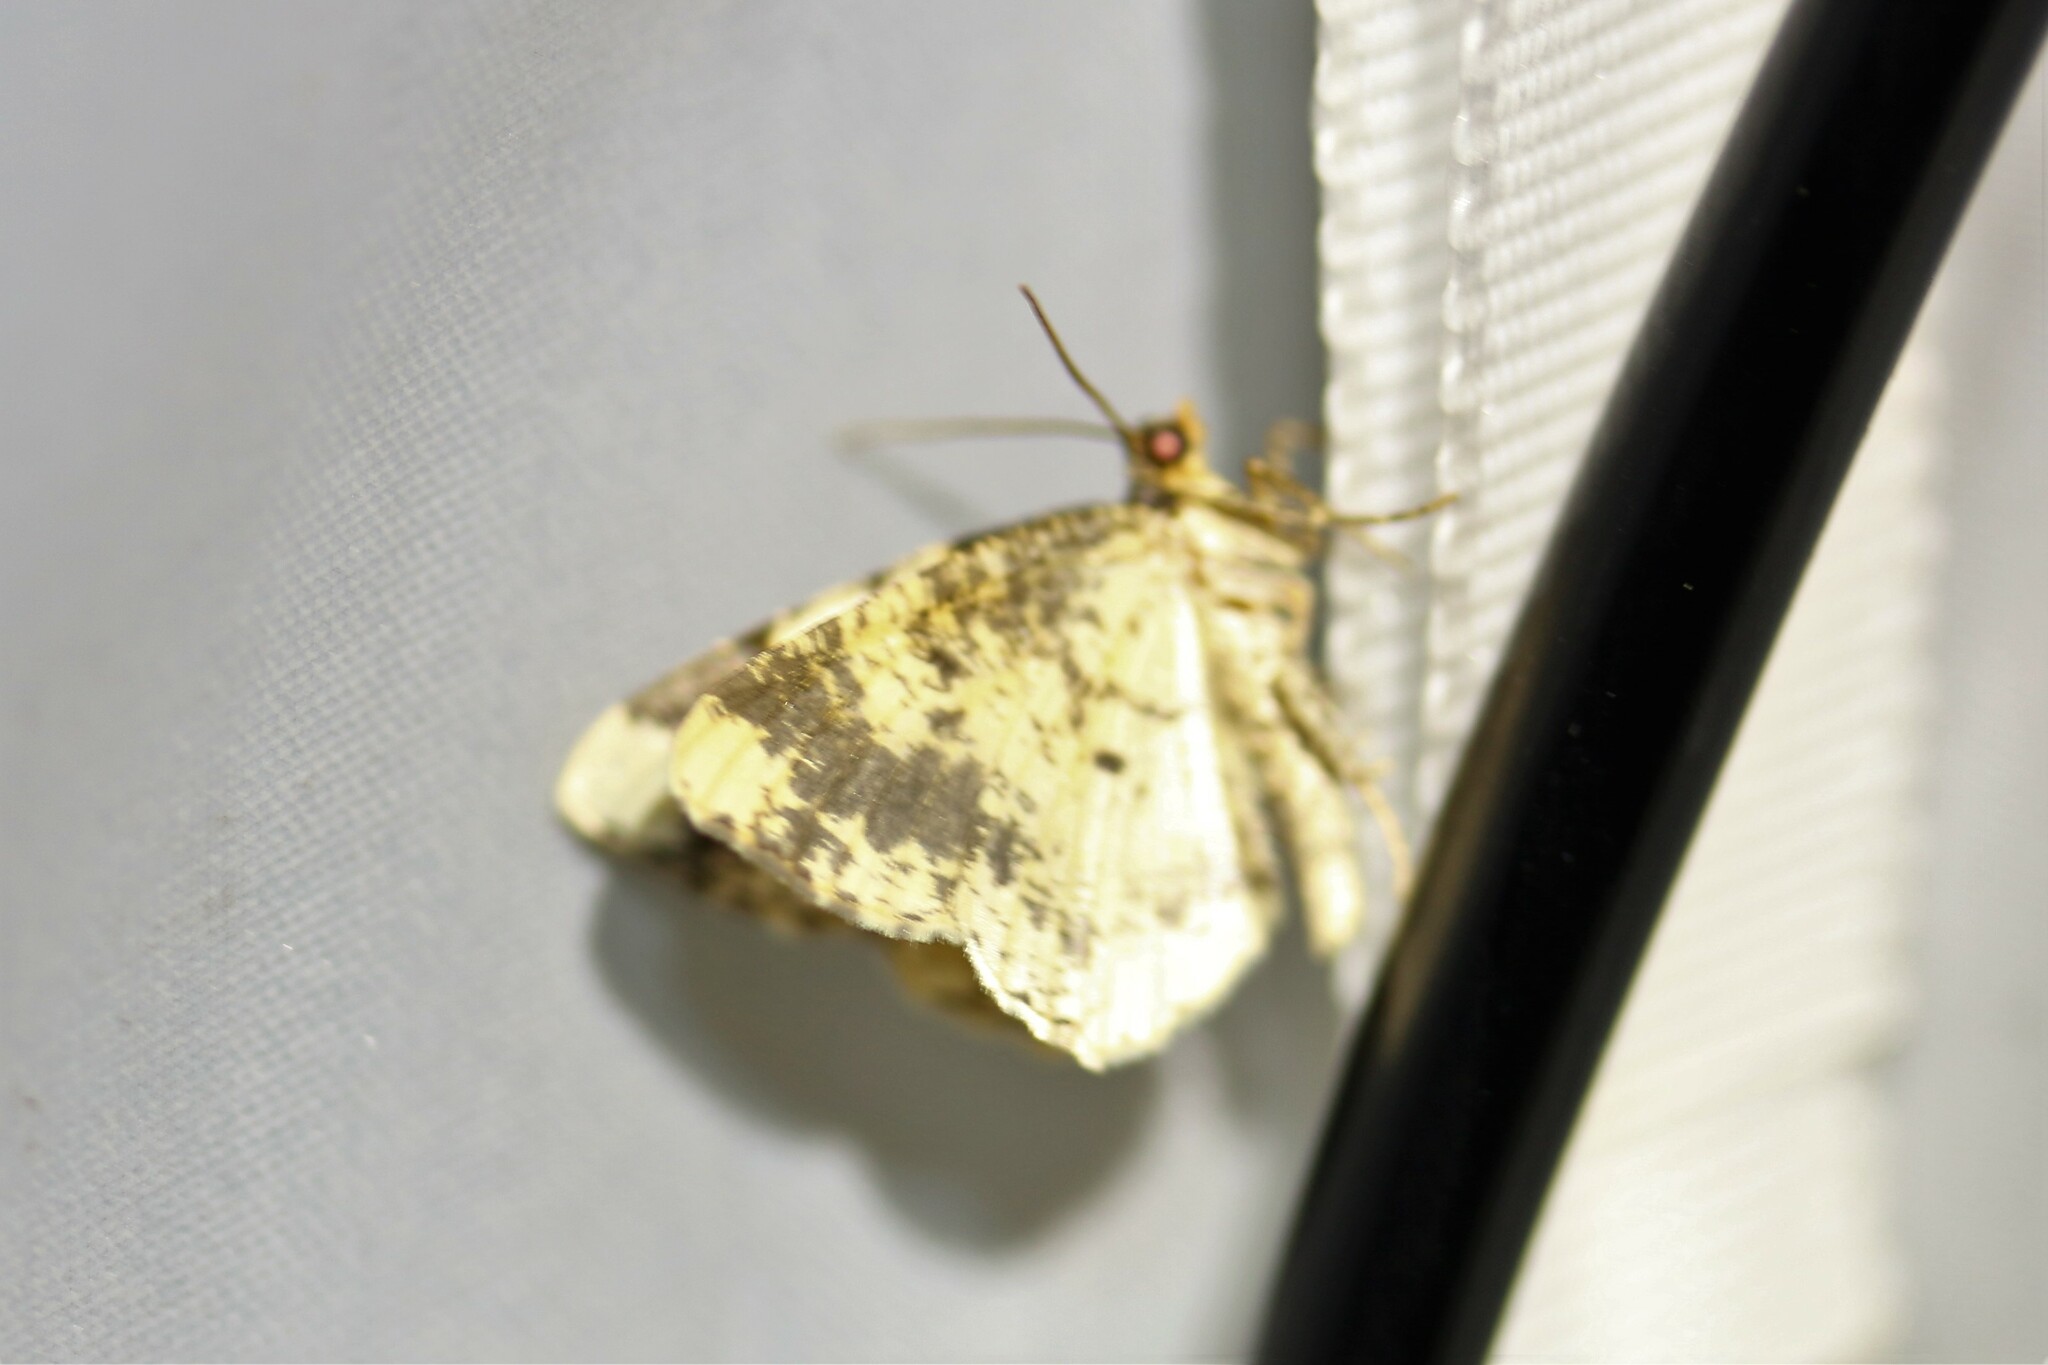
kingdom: Animalia
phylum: Arthropoda
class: Insecta
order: Lepidoptera
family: Geometridae
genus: Ligdia
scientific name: Ligdia adustata
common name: Scorched carpet
